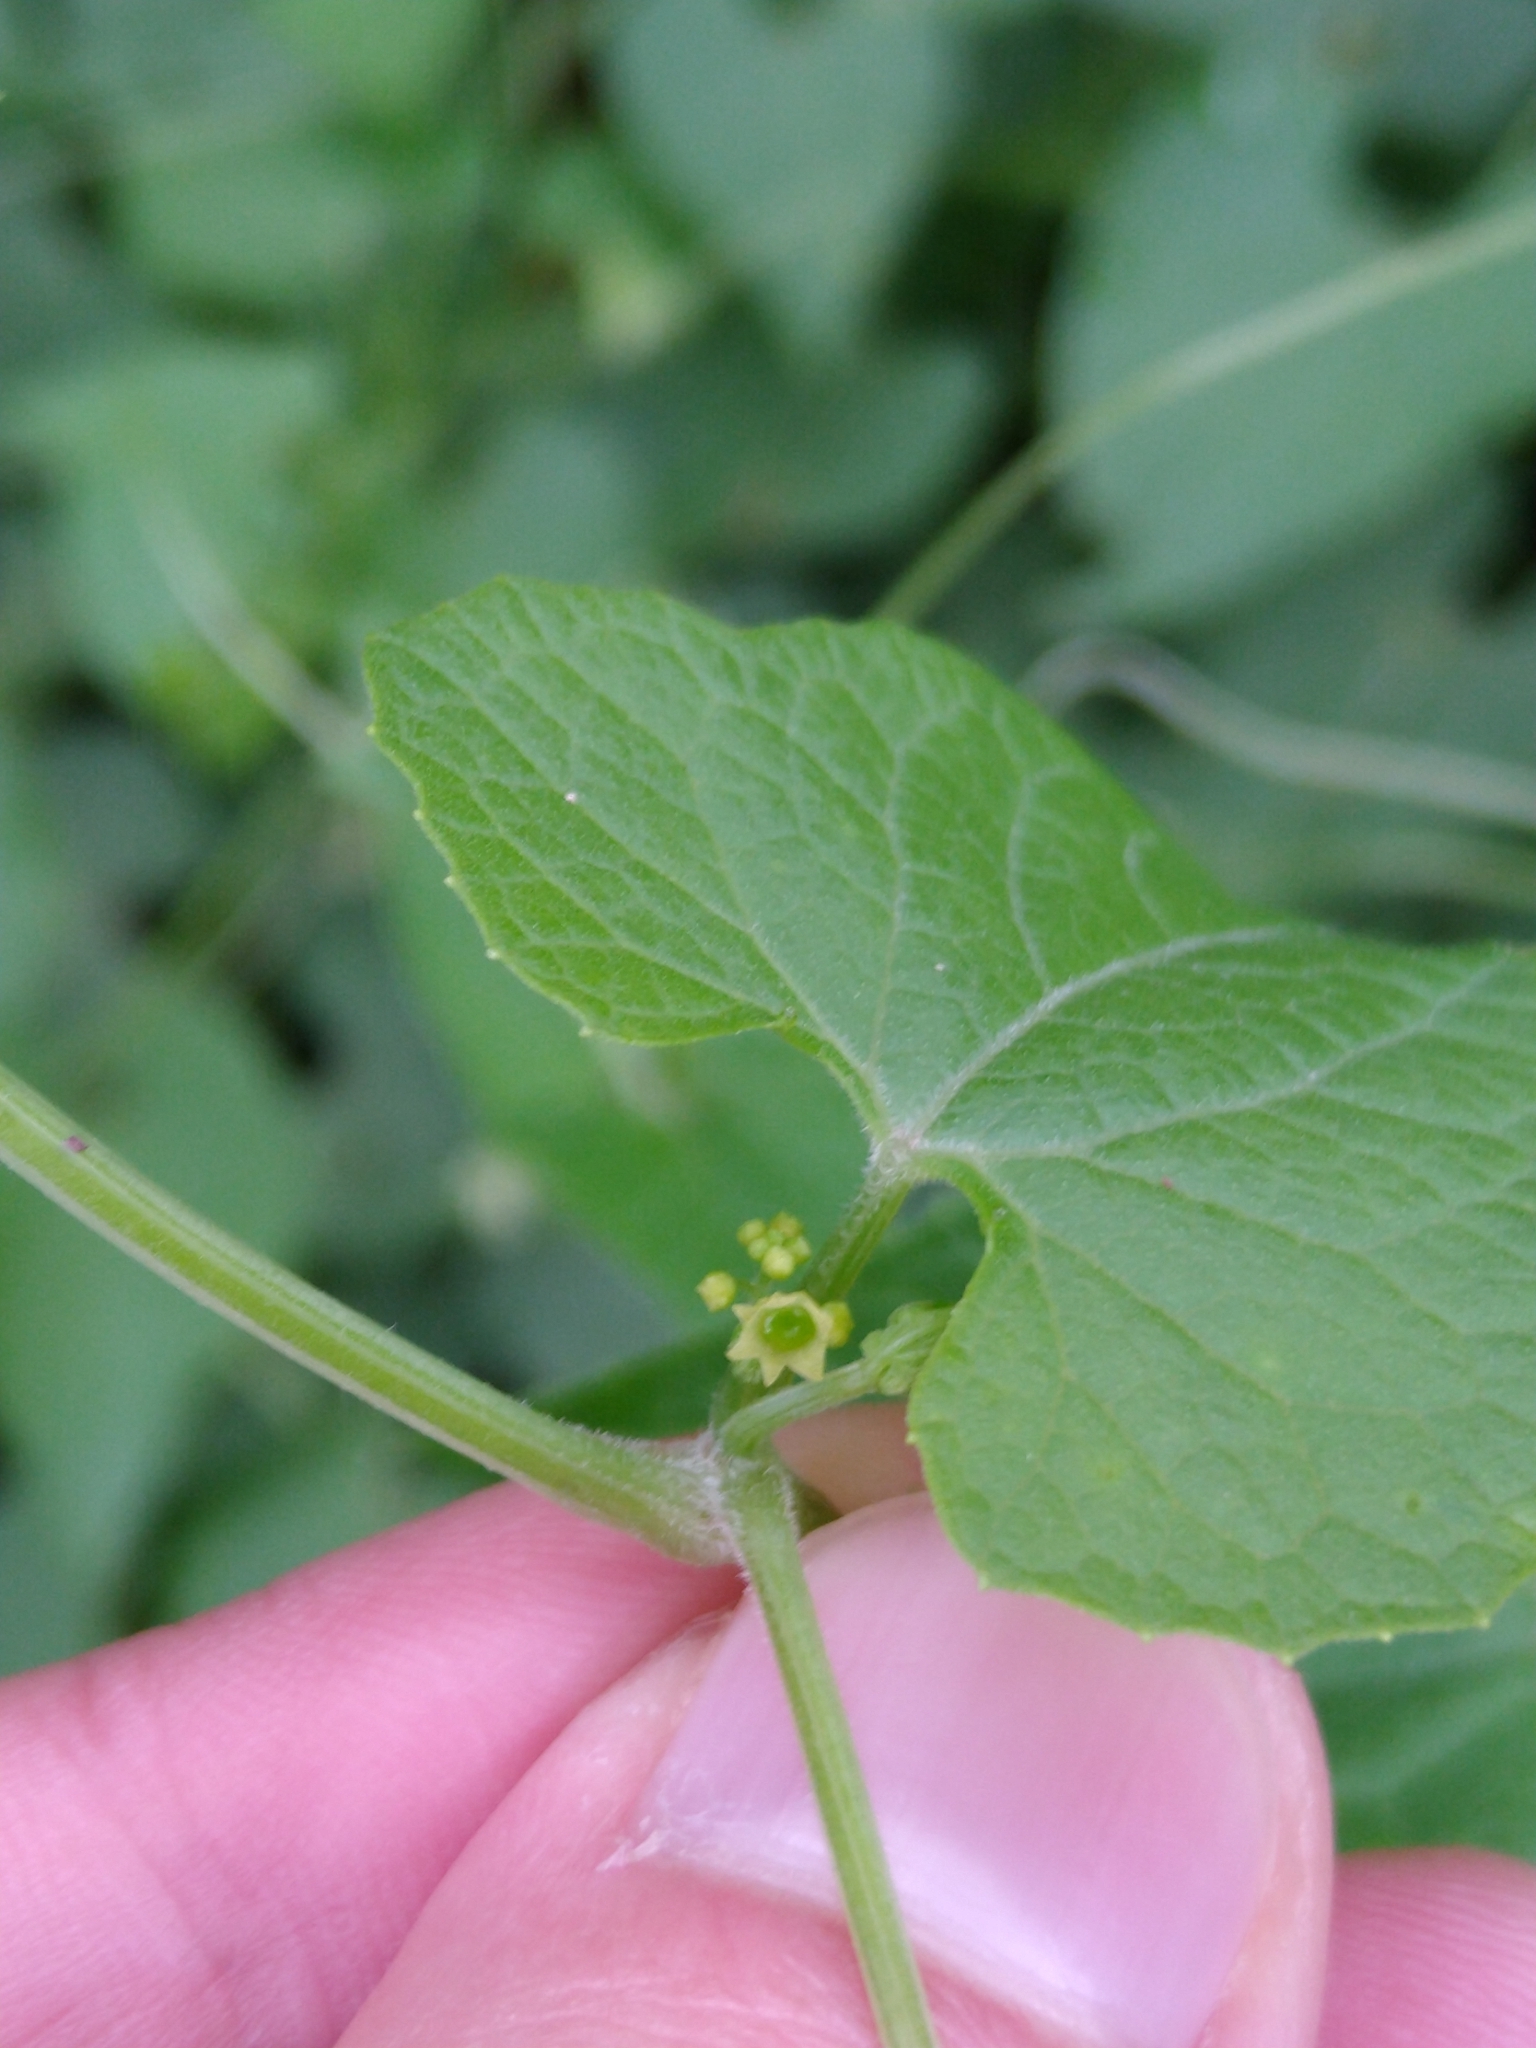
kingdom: Plantae
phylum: Tracheophyta
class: Magnoliopsida
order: Cucurbitales
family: Cucurbitaceae
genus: Cyclanthera
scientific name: Cyclanthera hastata
